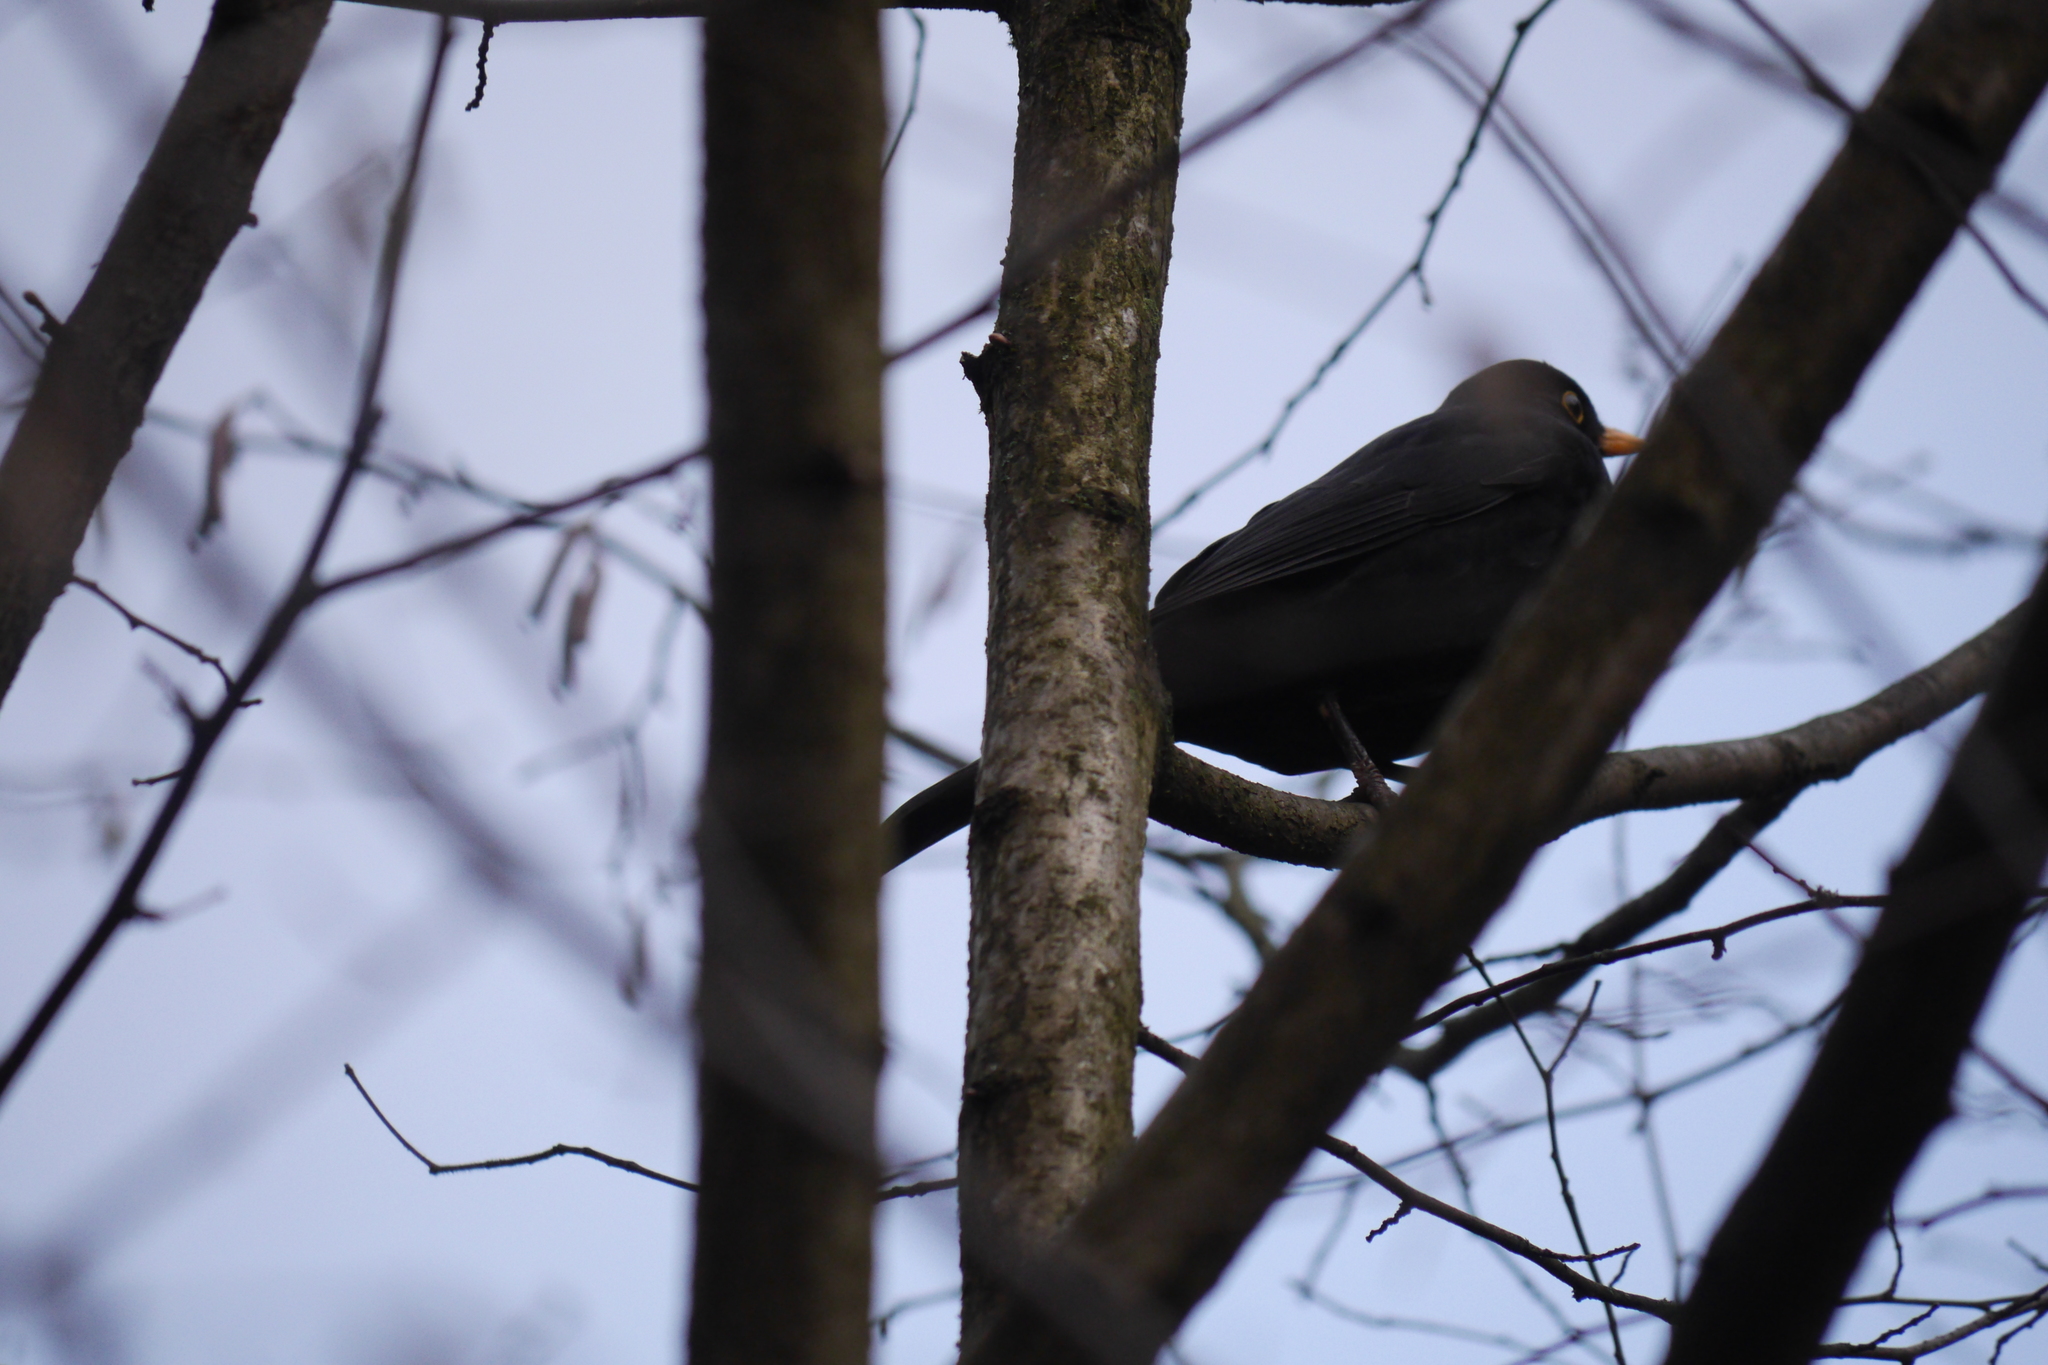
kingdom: Animalia
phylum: Chordata
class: Aves
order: Passeriformes
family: Turdidae
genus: Turdus
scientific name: Turdus merula
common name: Common blackbird
